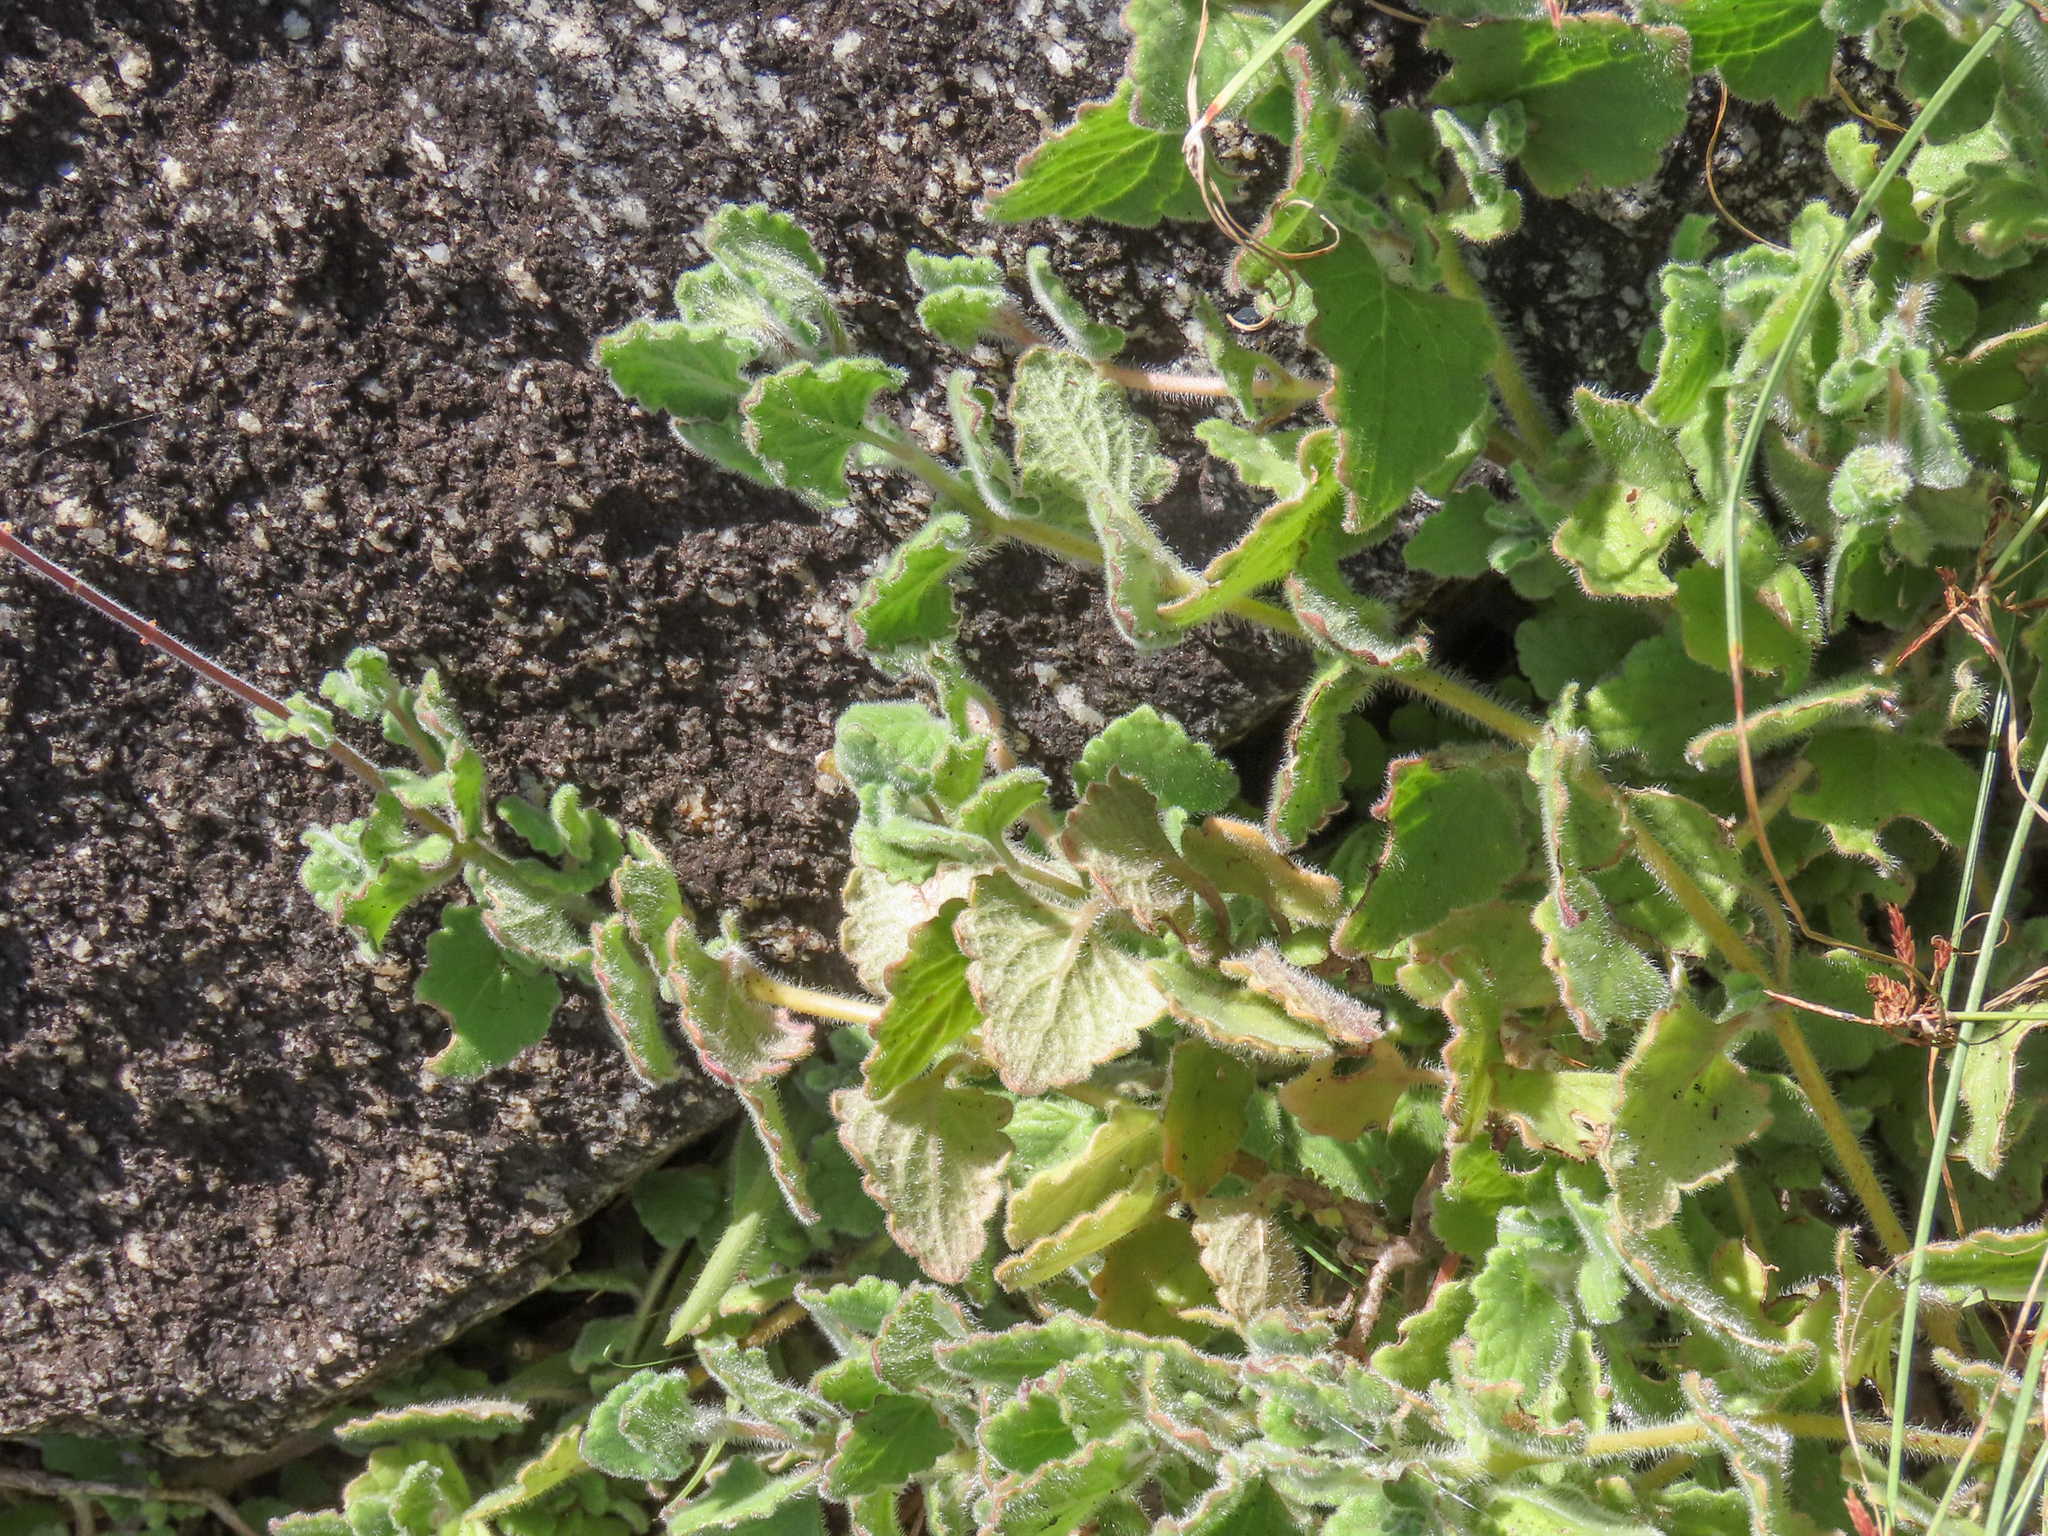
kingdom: Plantae
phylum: Tracheophyta
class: Magnoliopsida
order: Lamiales
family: Lamiaceae
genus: Coleus
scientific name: Coleus hadiensis
